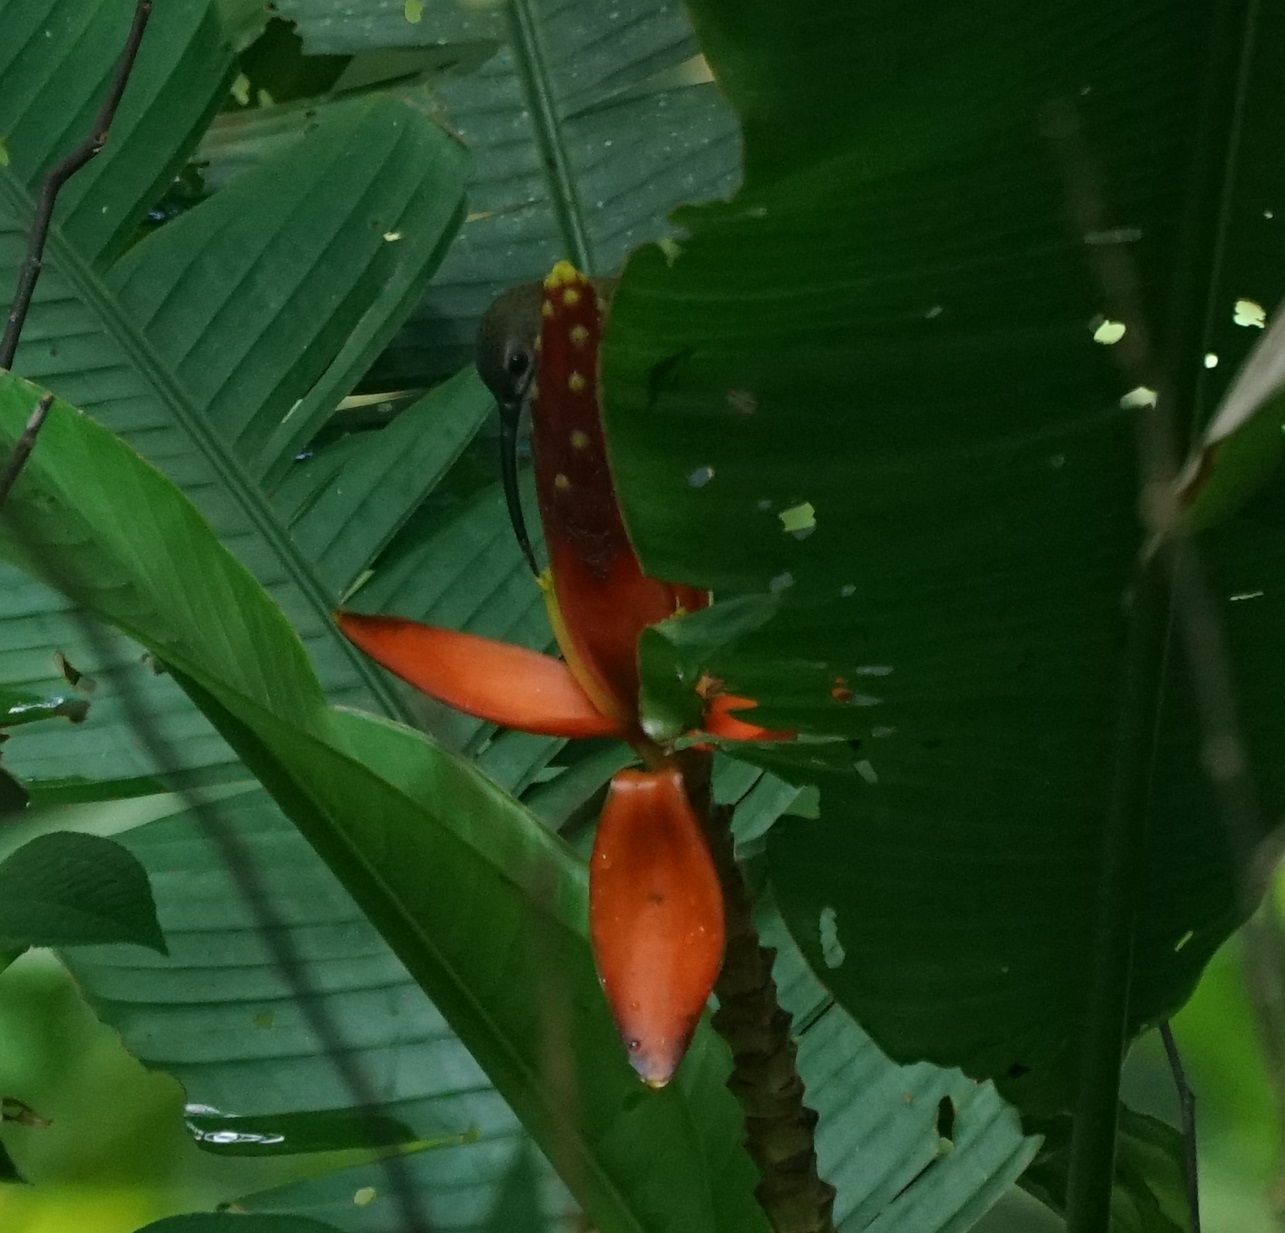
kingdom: Animalia
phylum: Chordata
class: Aves
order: Passeriformes
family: Nectariniidae
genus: Arachnothera
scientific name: Arachnothera longirostra
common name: Little spiderhunter
